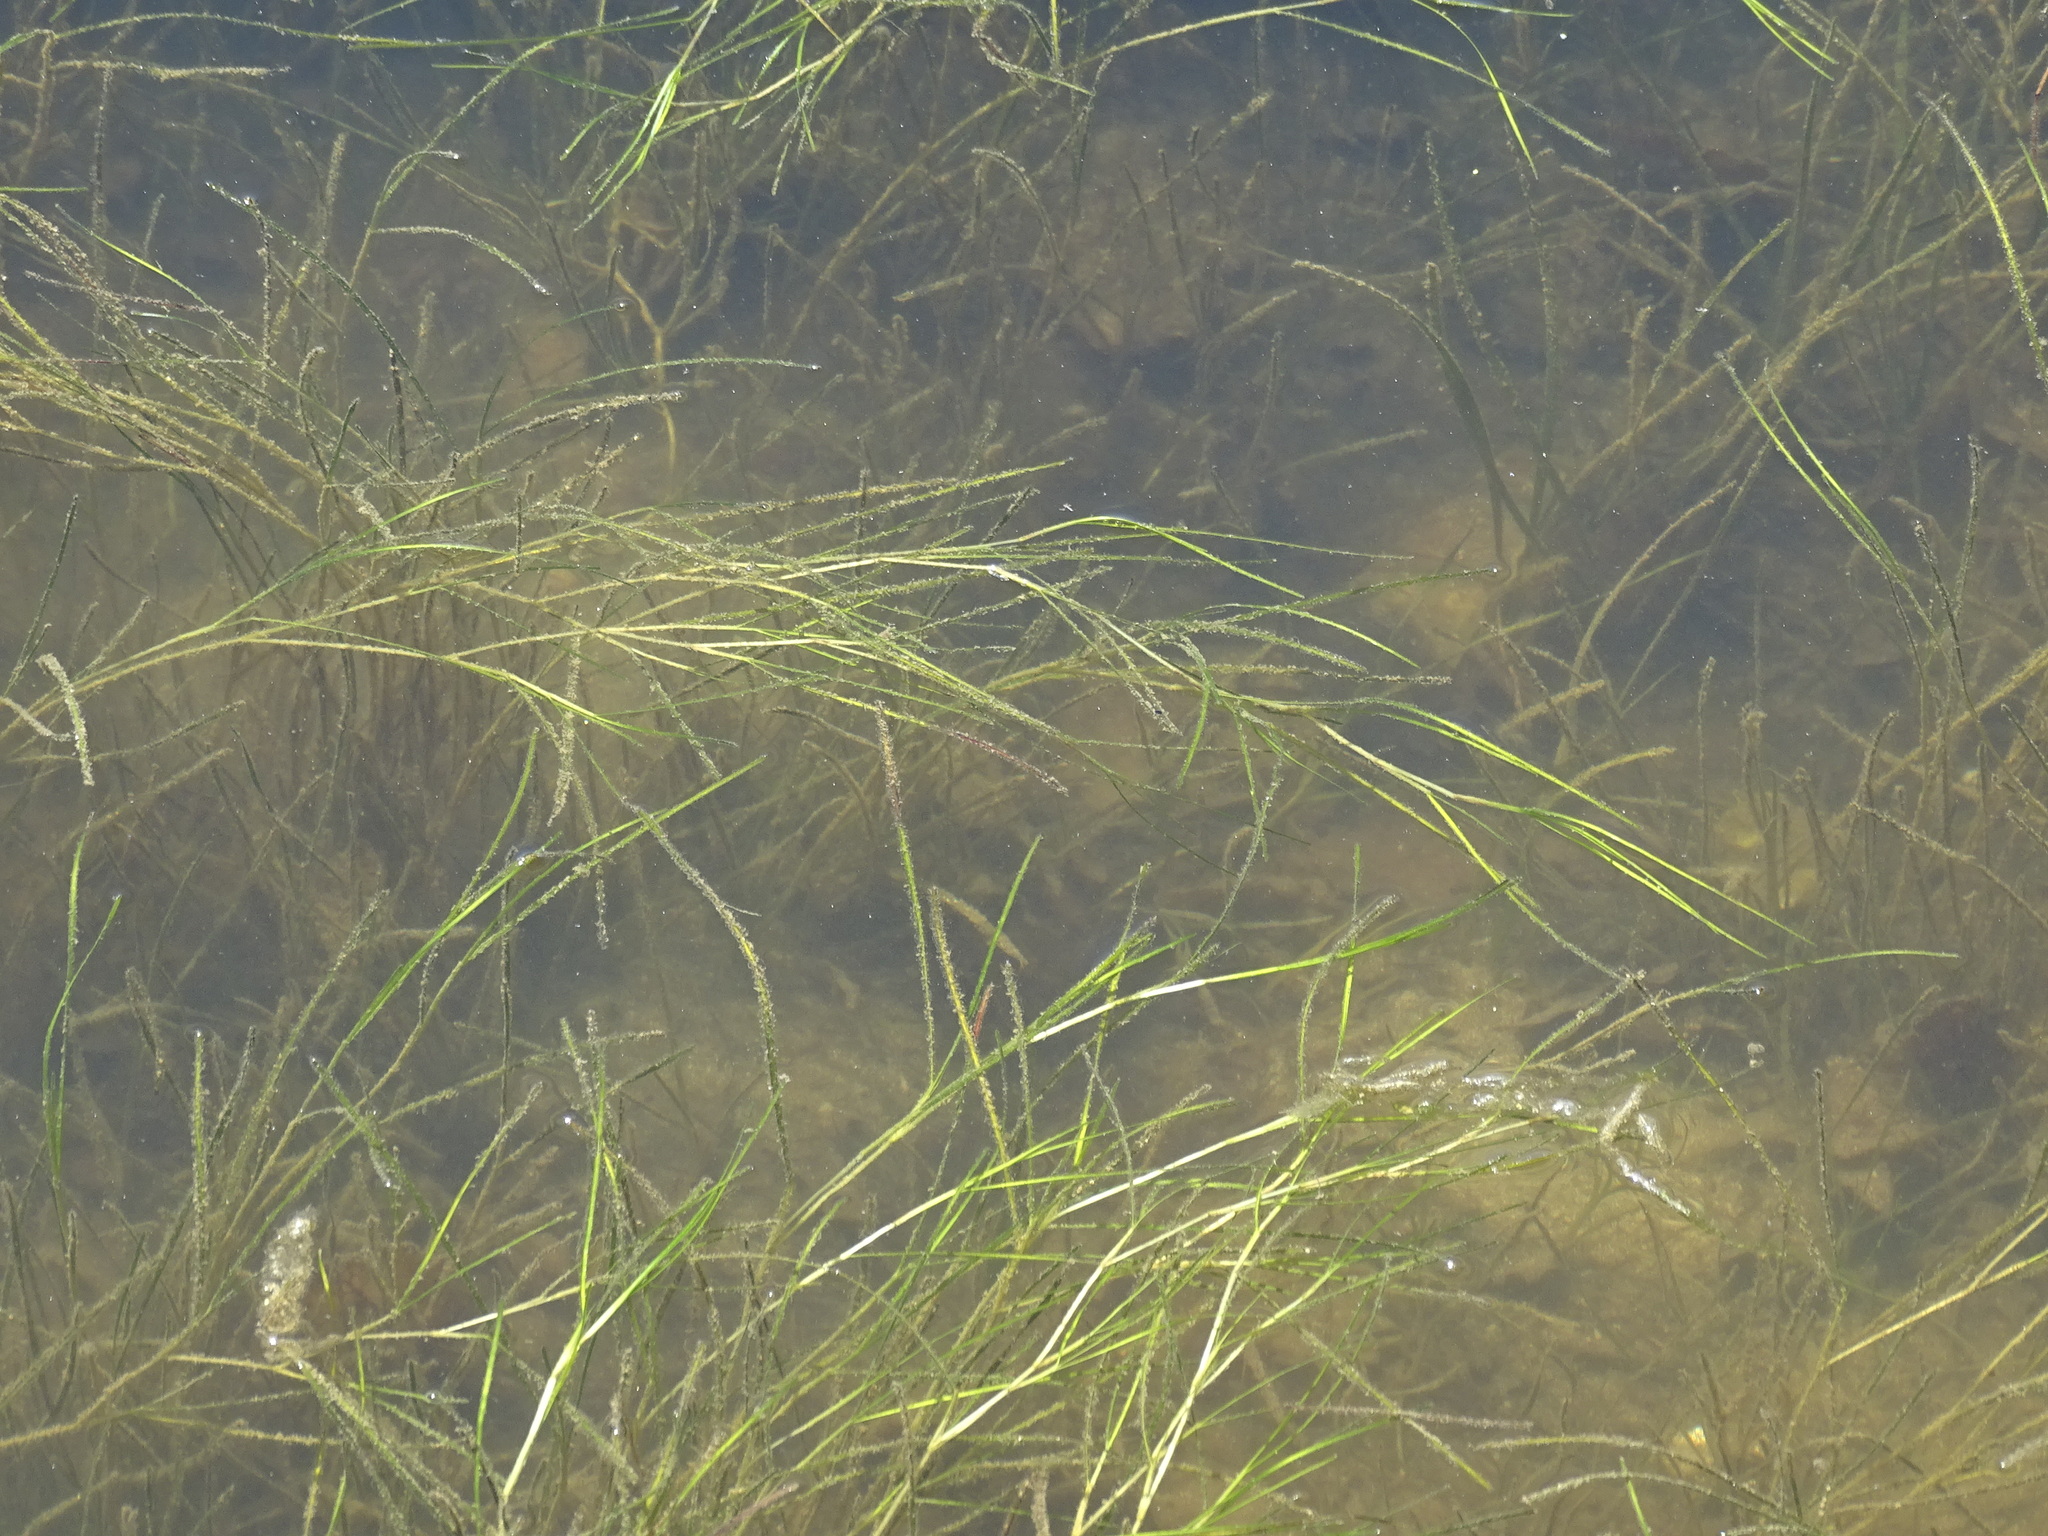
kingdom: Plantae
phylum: Tracheophyta
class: Liliopsida
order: Alismatales
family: Potamogetonaceae
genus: Stuckenia
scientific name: Stuckenia pectinata
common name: Sago pondweed
